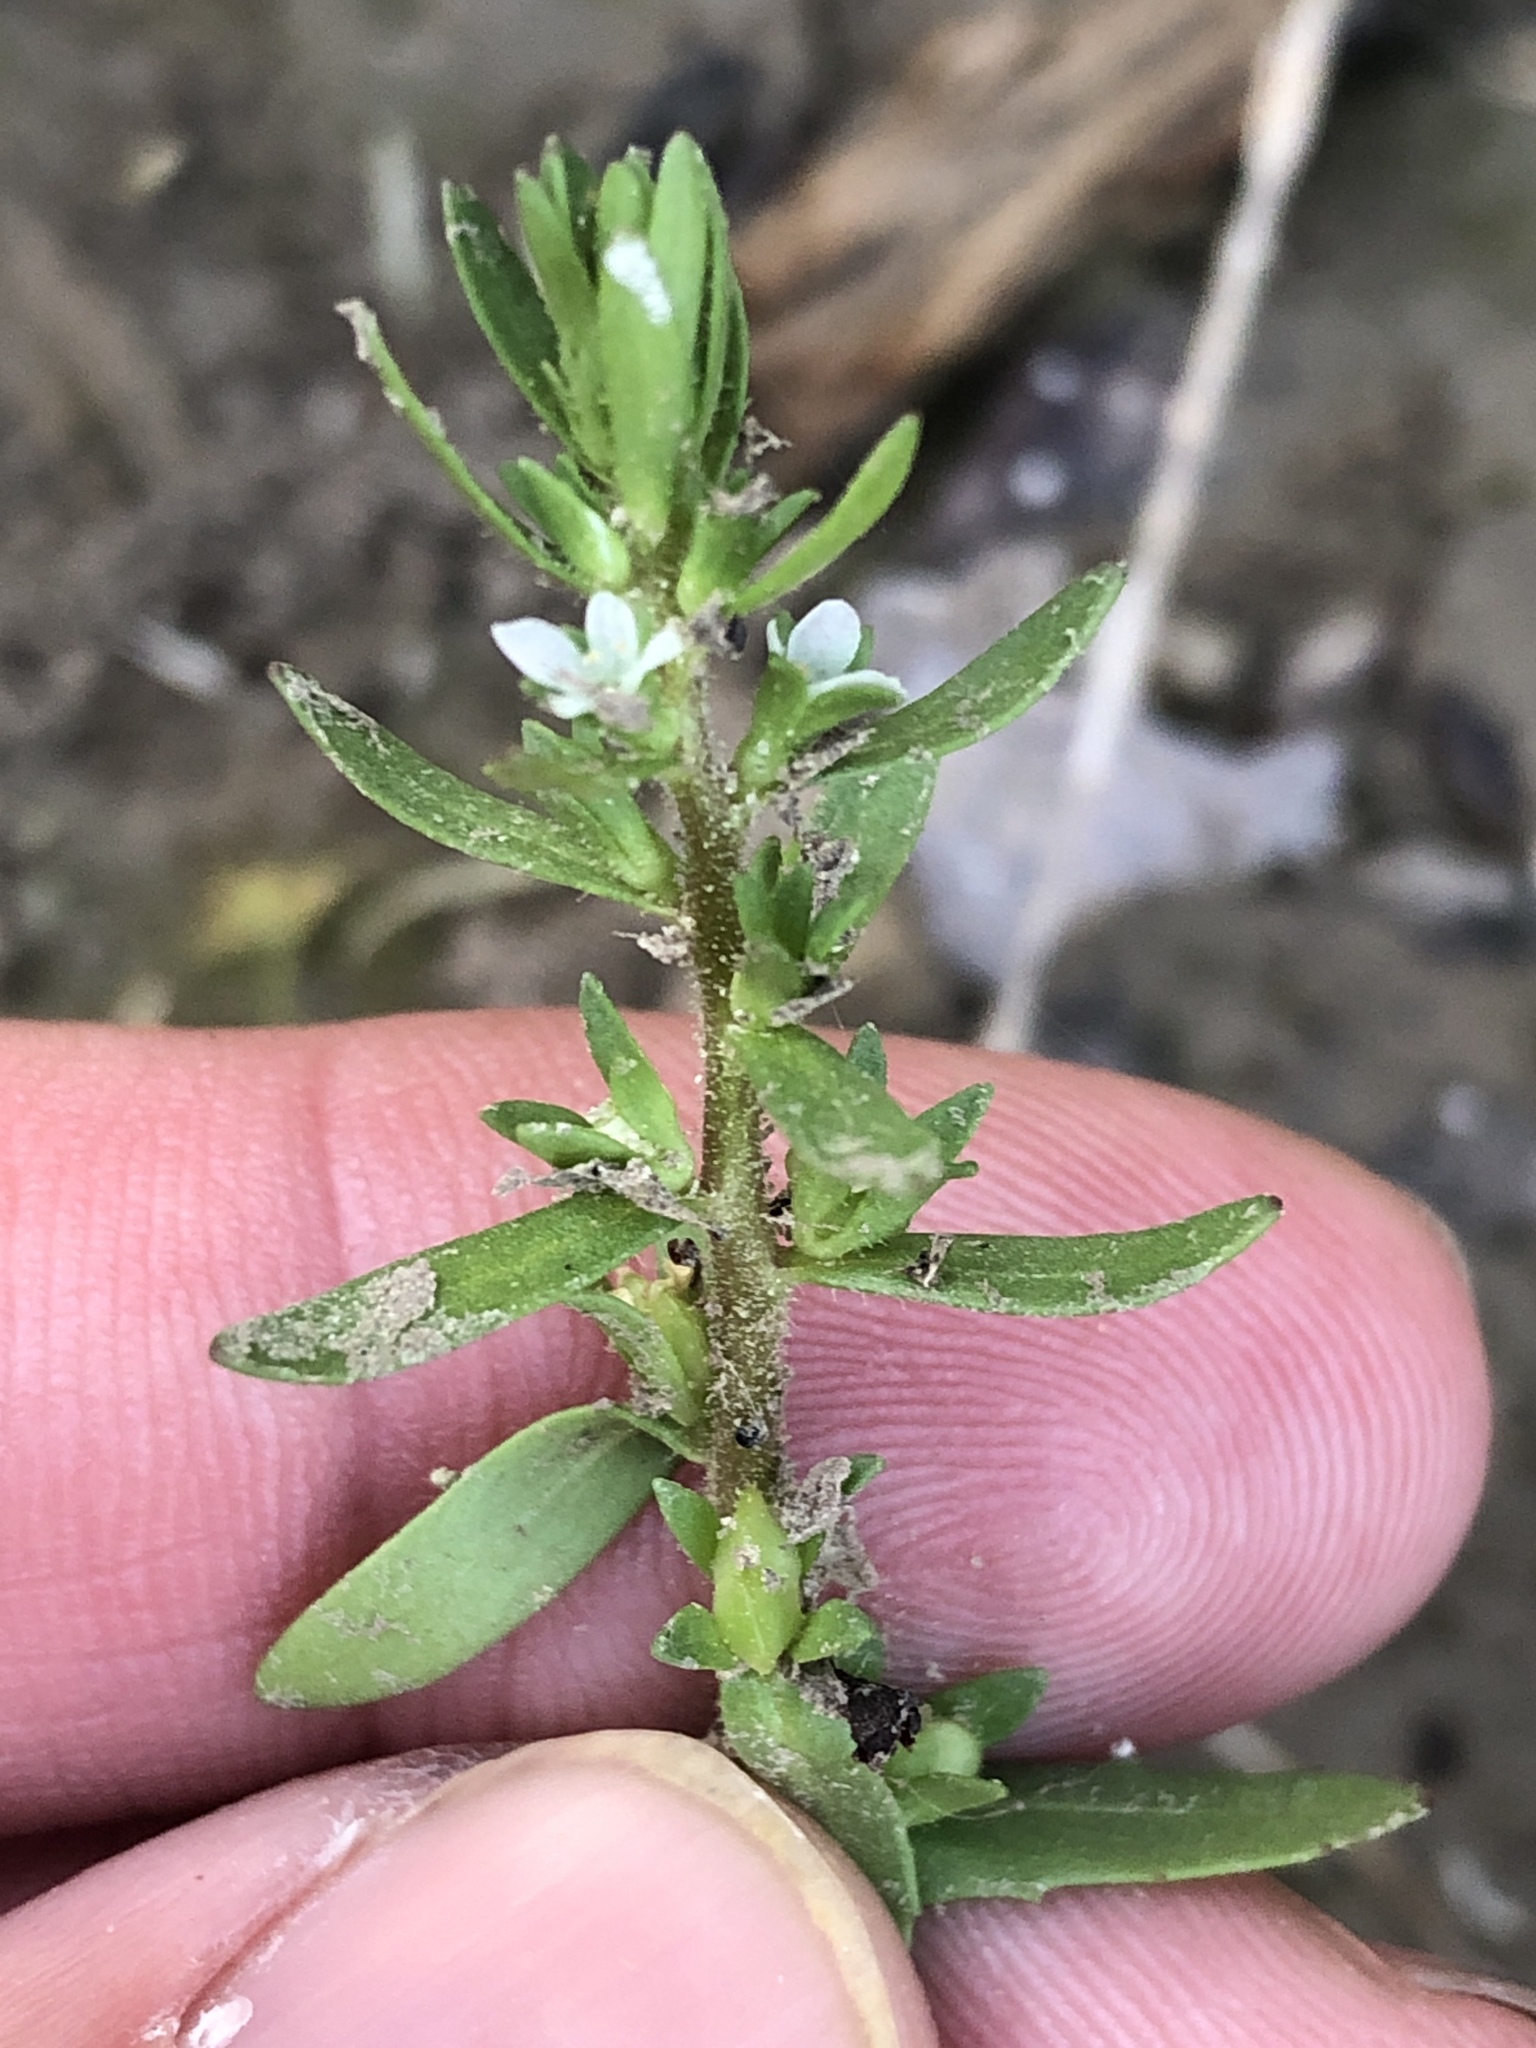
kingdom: Plantae
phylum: Tracheophyta
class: Magnoliopsida
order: Lamiales
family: Plantaginaceae
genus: Veronica
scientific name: Veronica peregrina
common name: Neckweed
